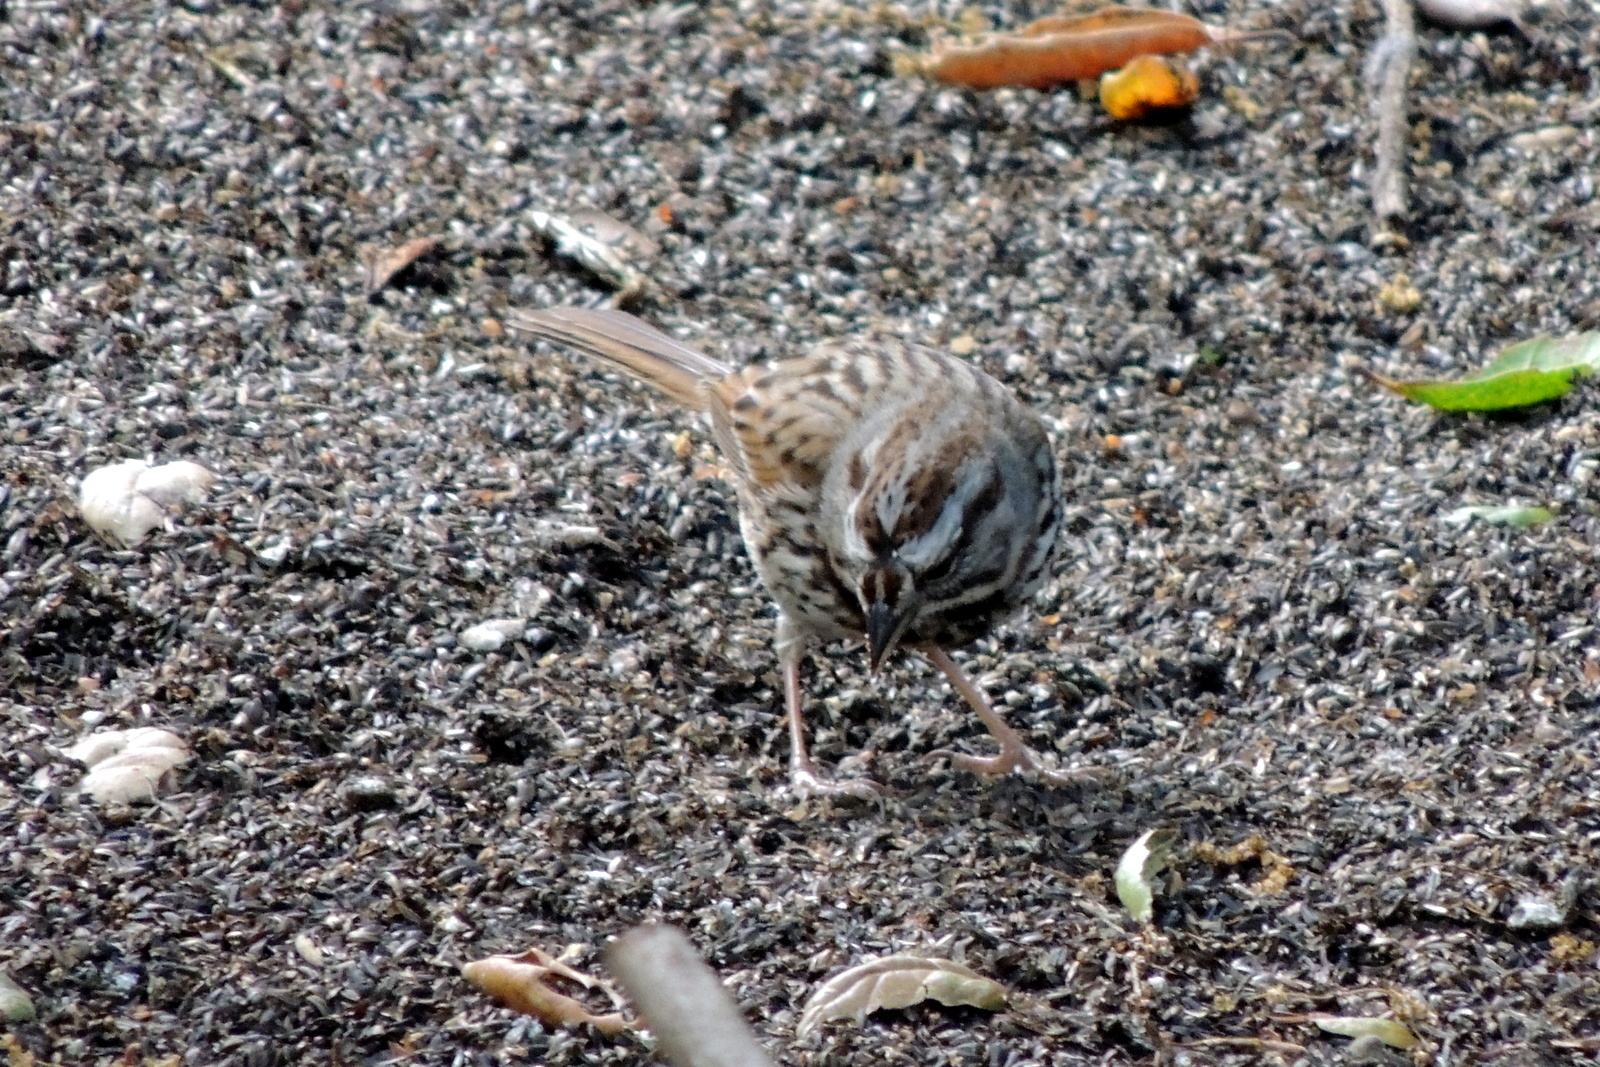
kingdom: Animalia
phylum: Chordata
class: Aves
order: Passeriformes
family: Passerellidae
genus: Melospiza
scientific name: Melospiza melodia
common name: Song sparrow
